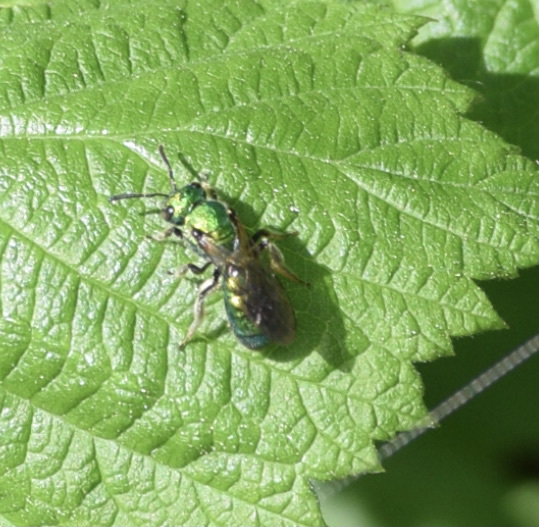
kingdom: Animalia
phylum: Arthropoda
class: Insecta
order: Hymenoptera
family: Halictidae
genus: Augochlora
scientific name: Augochlora pura
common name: Pure green sweat bee
